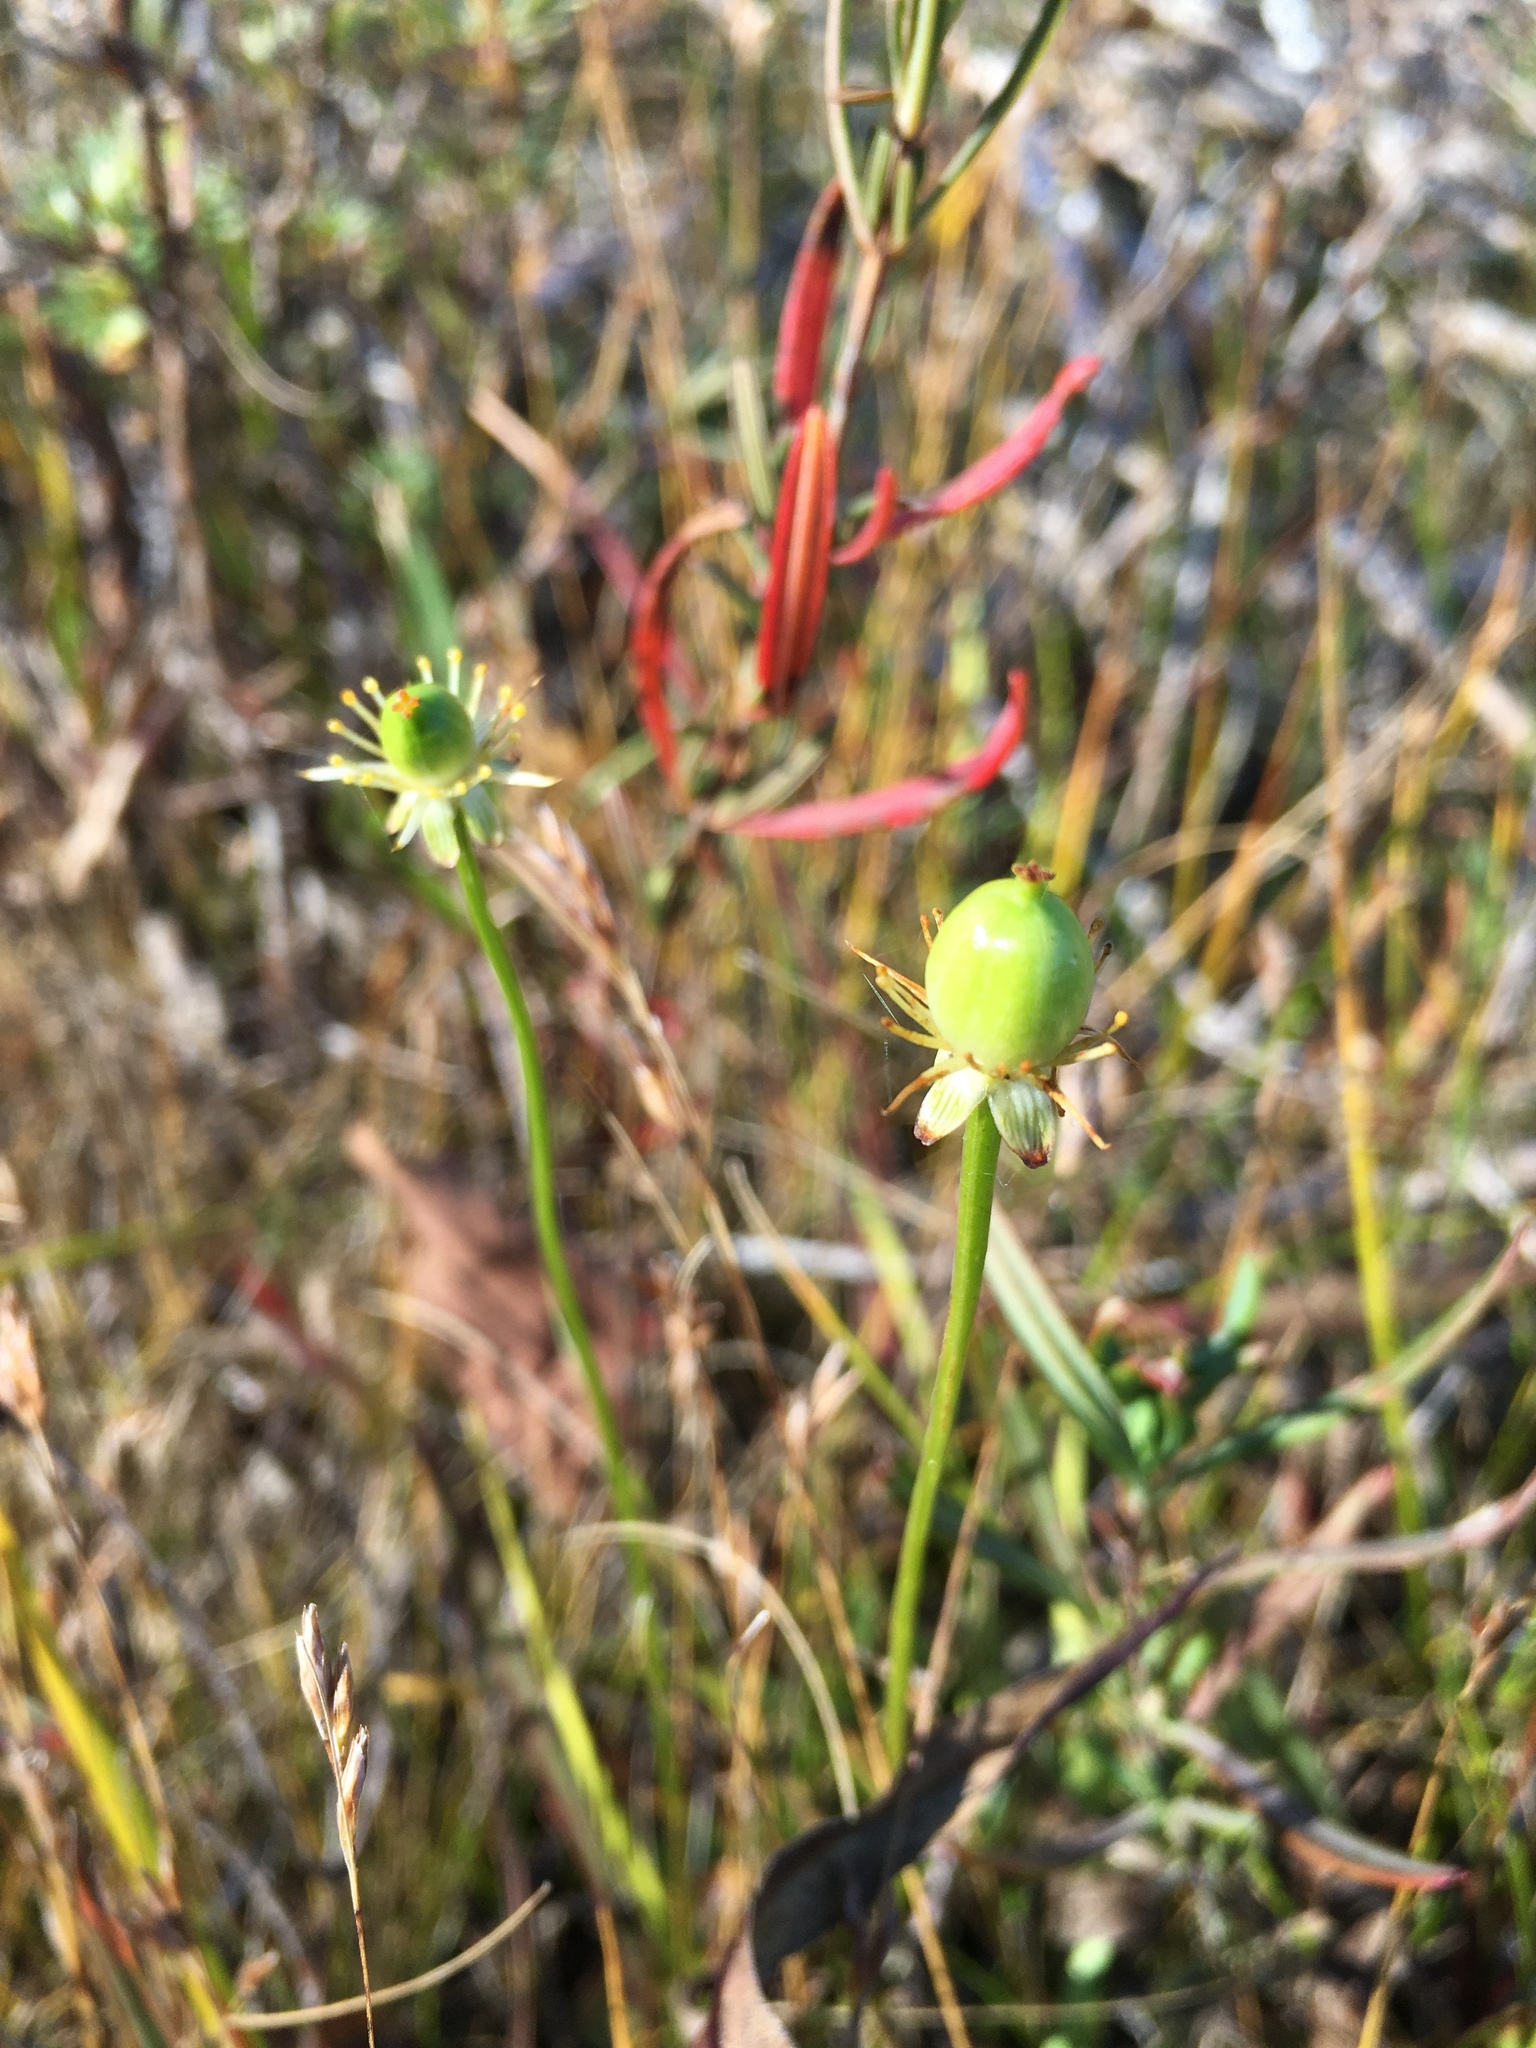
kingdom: Plantae
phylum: Tracheophyta
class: Magnoliopsida
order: Celastrales
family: Parnassiaceae
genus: Parnassia
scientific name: Parnassia glauca
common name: American grass-of-parnassus
